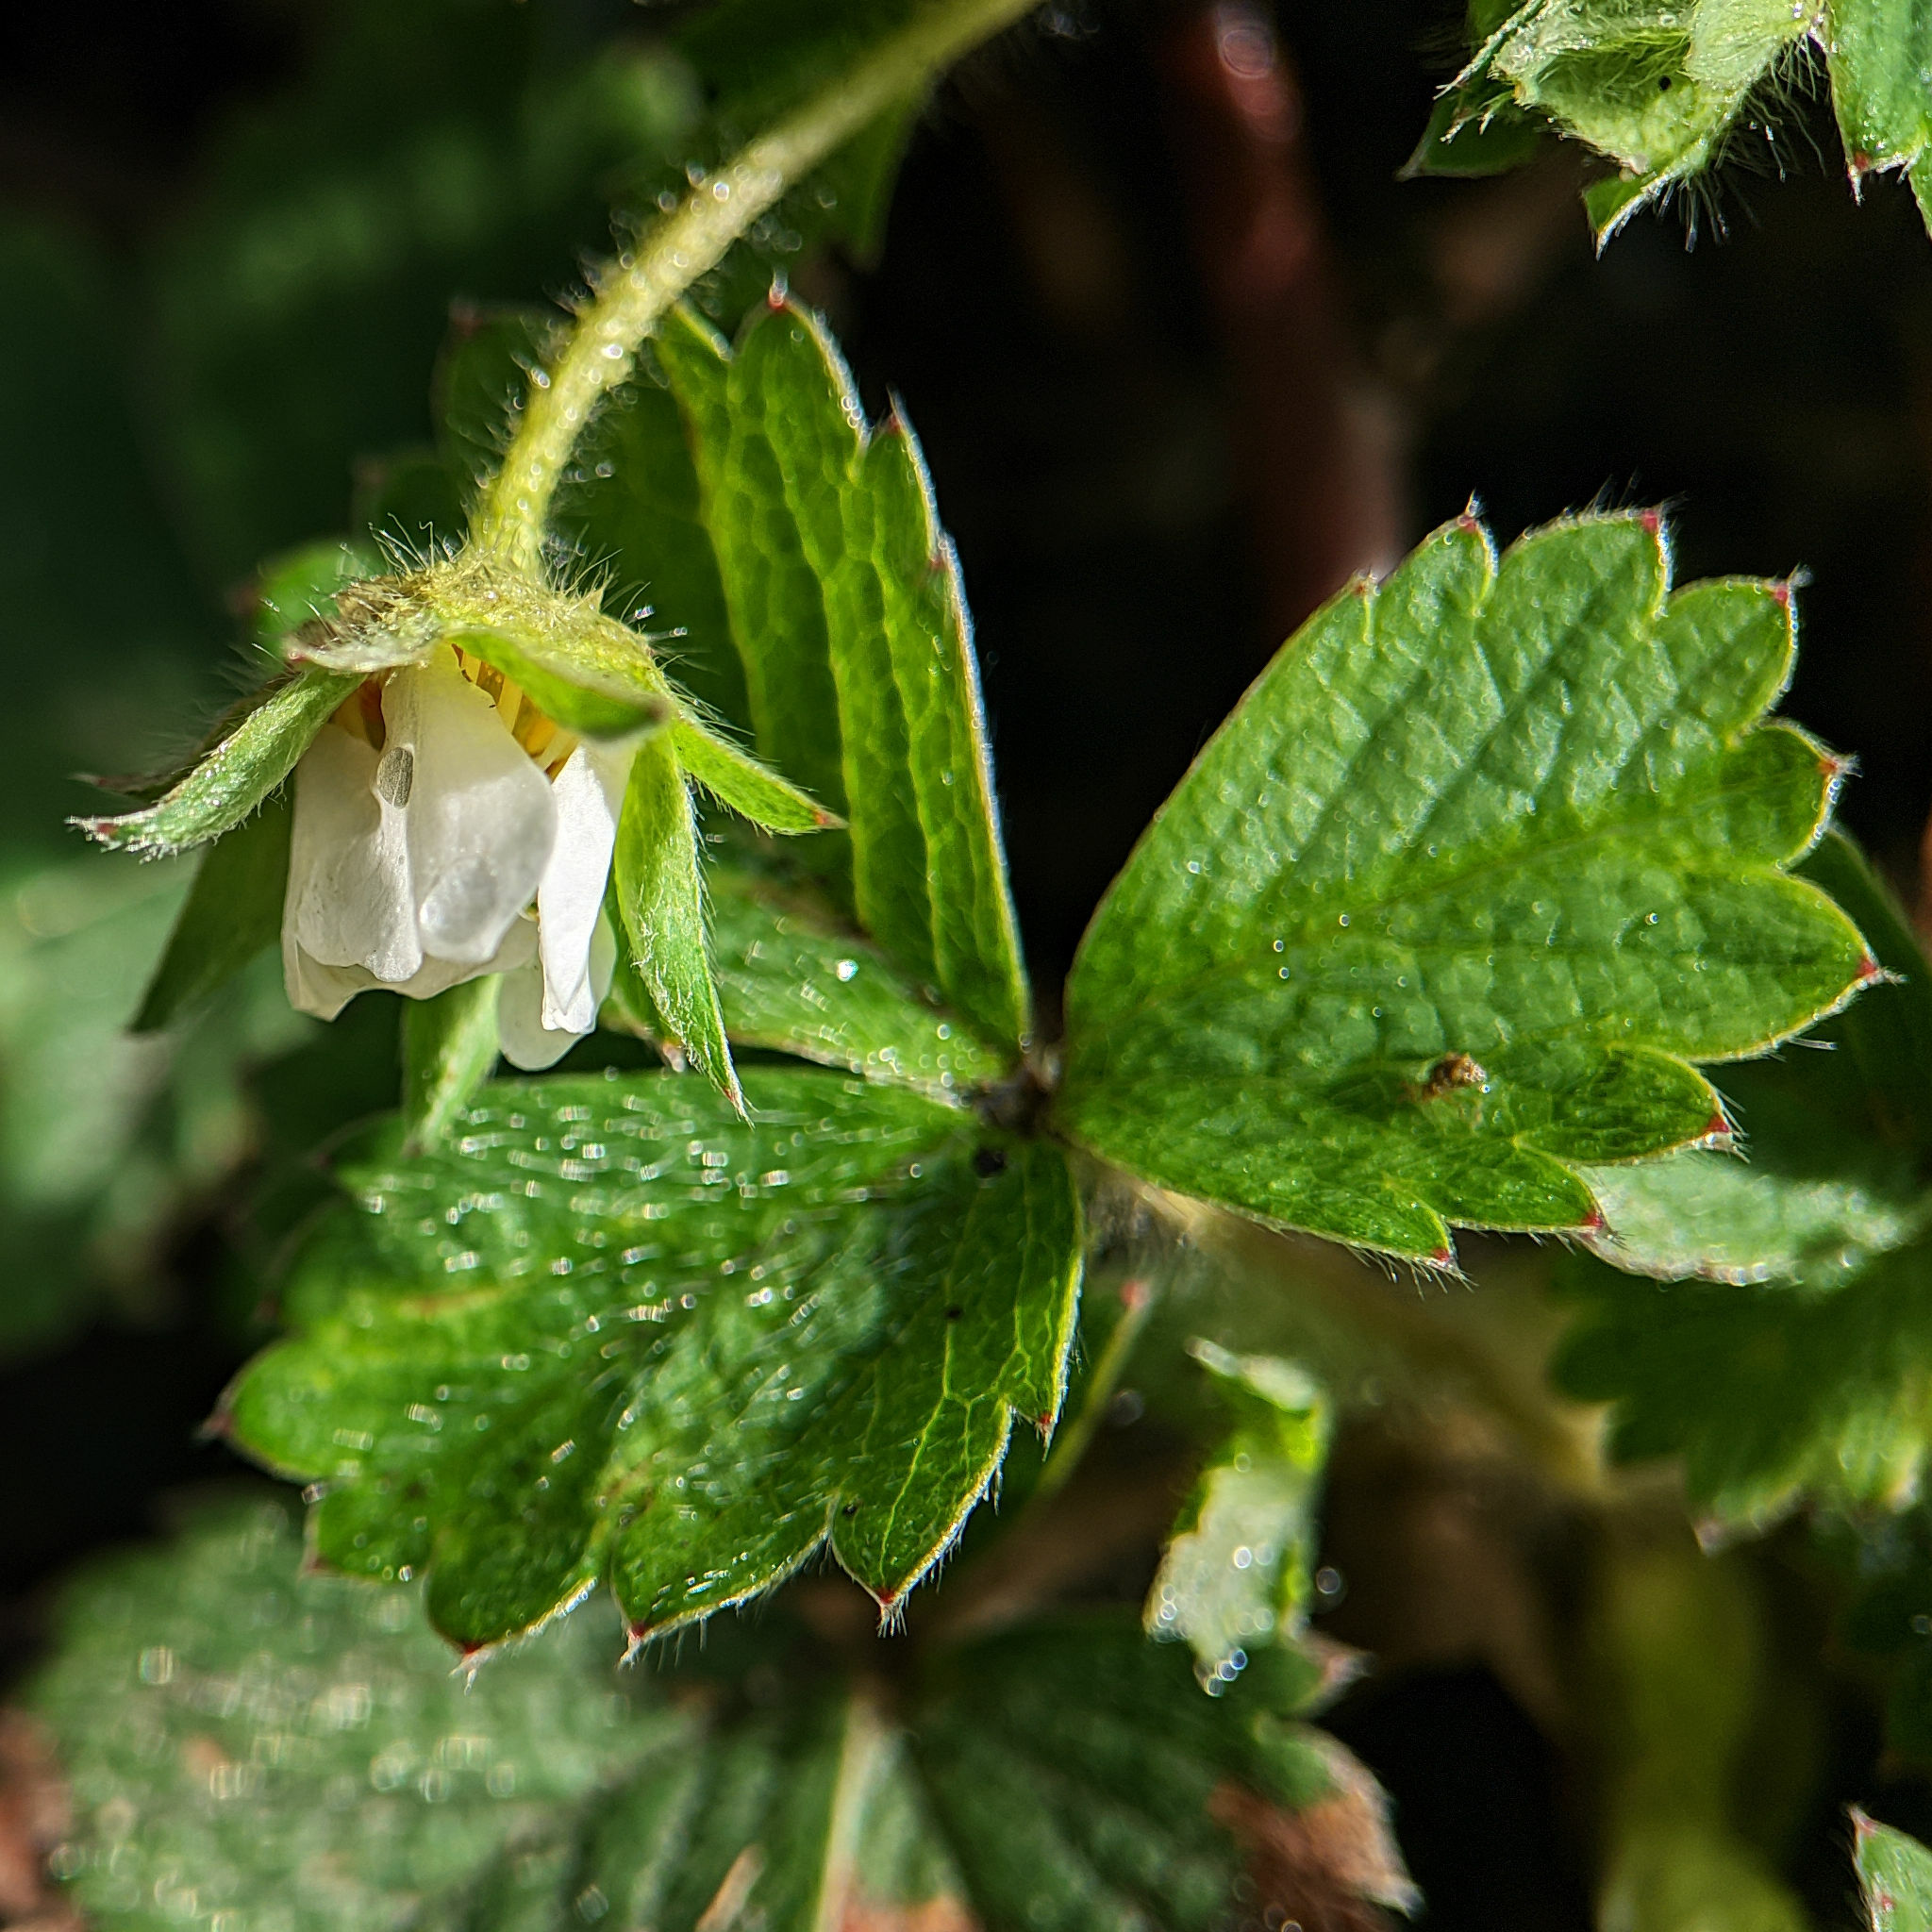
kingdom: Plantae
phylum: Tracheophyta
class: Magnoliopsida
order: Rosales
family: Rosaceae
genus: Potentilla
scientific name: Potentilla sterilis
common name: Barren strawberry
